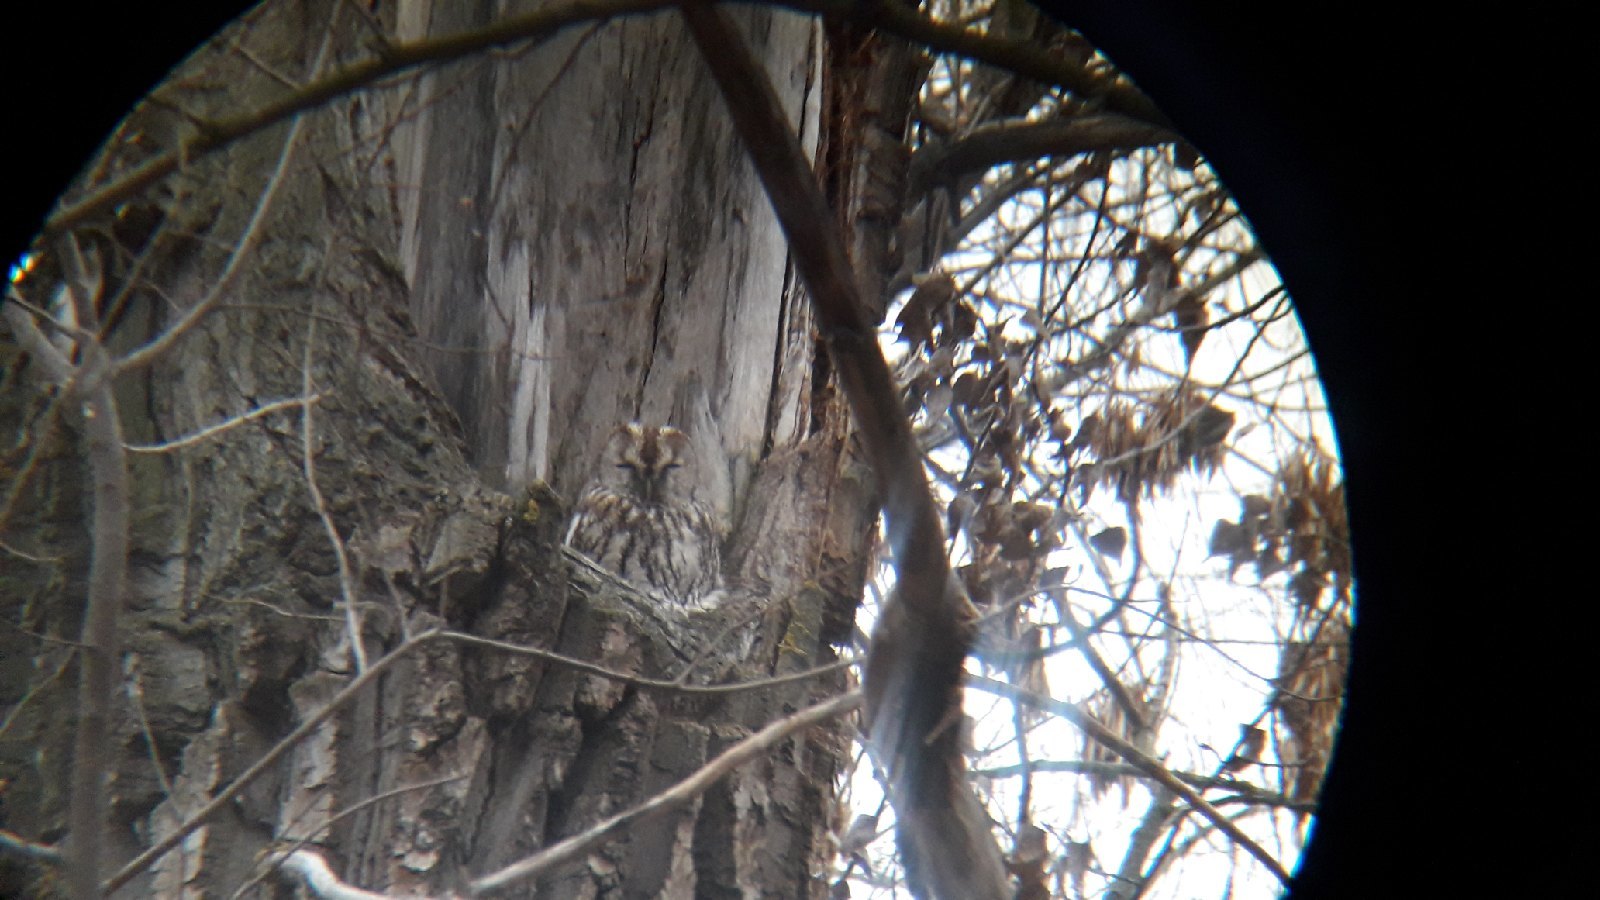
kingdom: Animalia
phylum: Chordata
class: Aves
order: Strigiformes
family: Strigidae
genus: Strix
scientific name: Strix aluco
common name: Tawny owl
